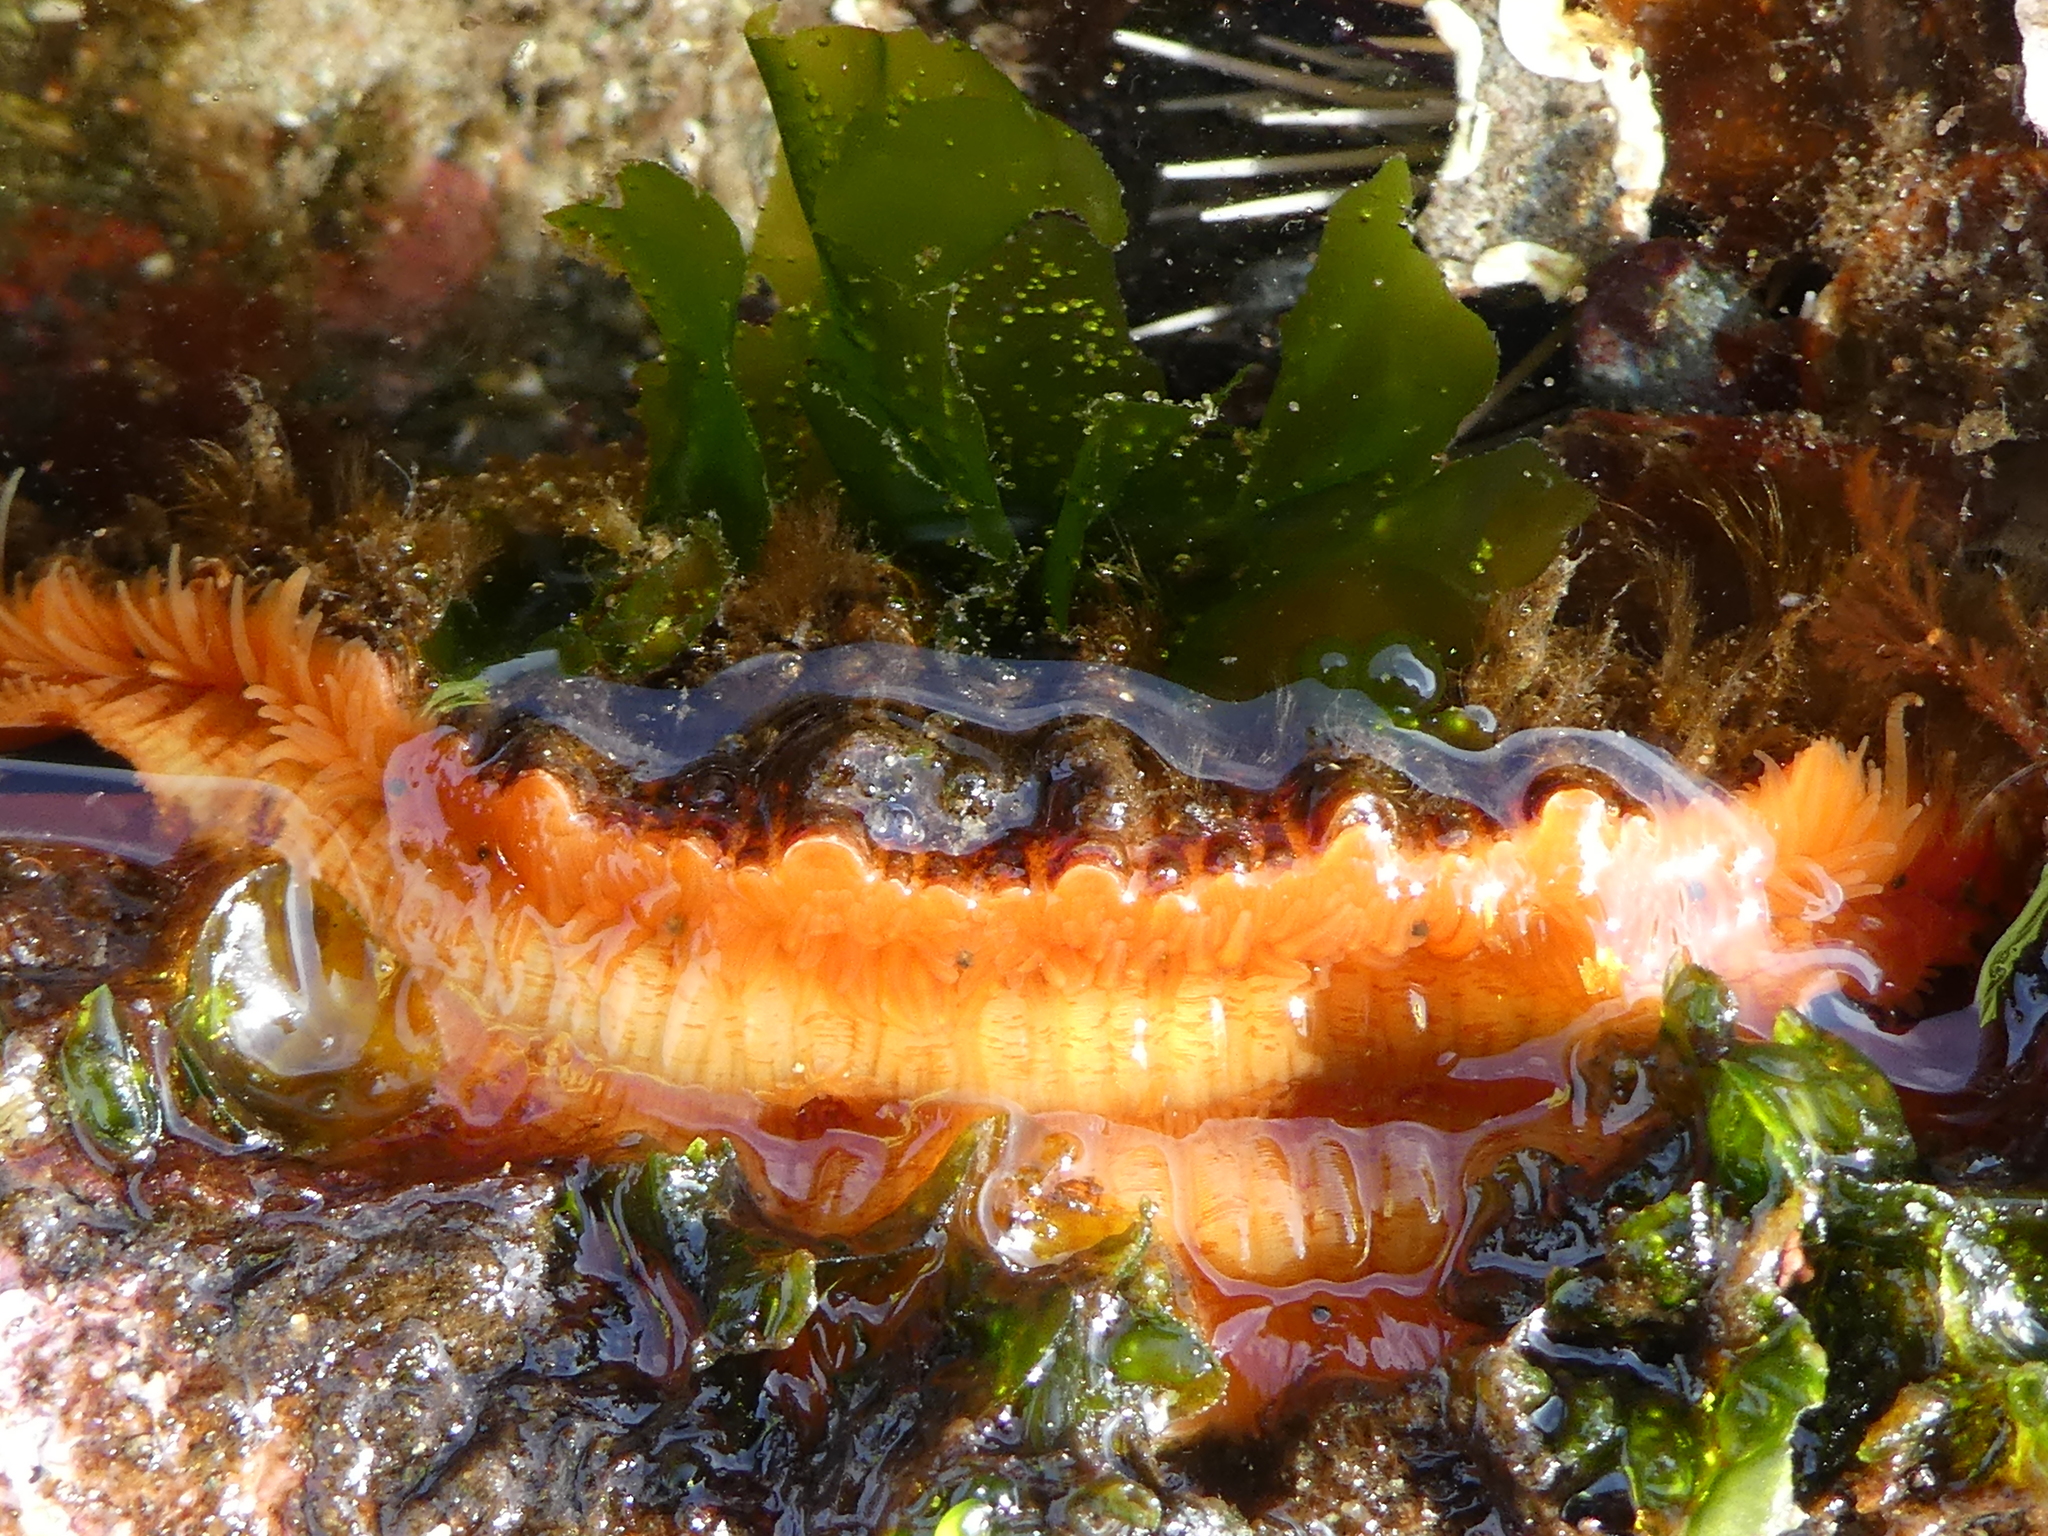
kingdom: Animalia
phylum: Mollusca
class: Bivalvia
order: Pectinida
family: Pectinidae
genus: Crassadoma
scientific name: Crassadoma gigantea
